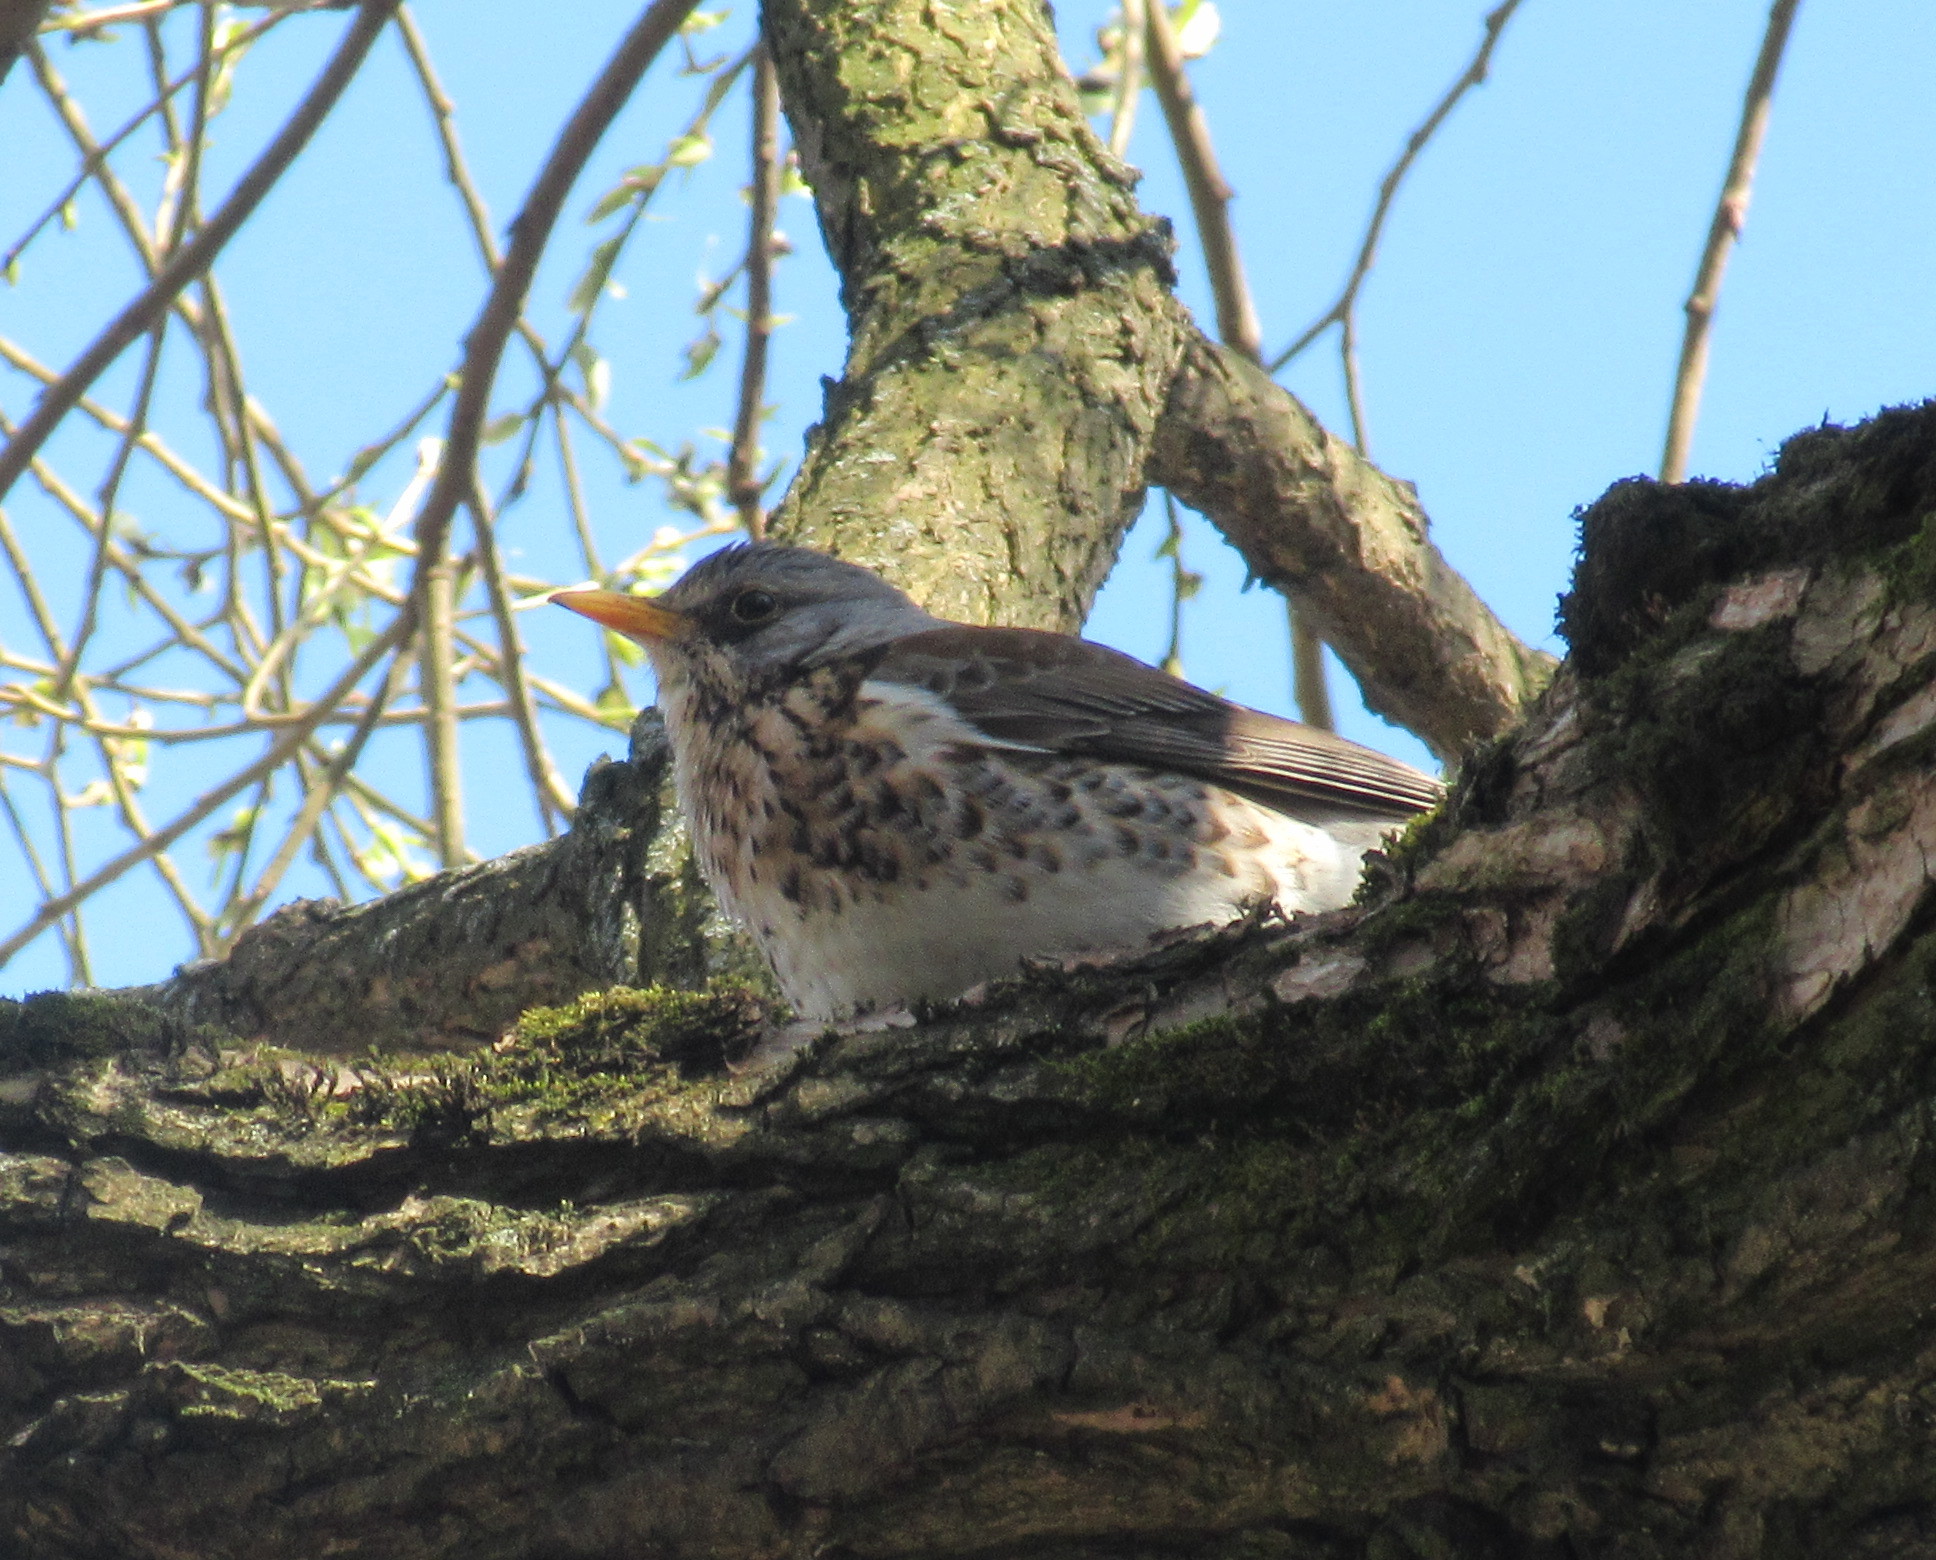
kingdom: Animalia
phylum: Chordata
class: Aves
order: Passeriformes
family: Turdidae
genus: Turdus
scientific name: Turdus pilaris
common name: Fieldfare
